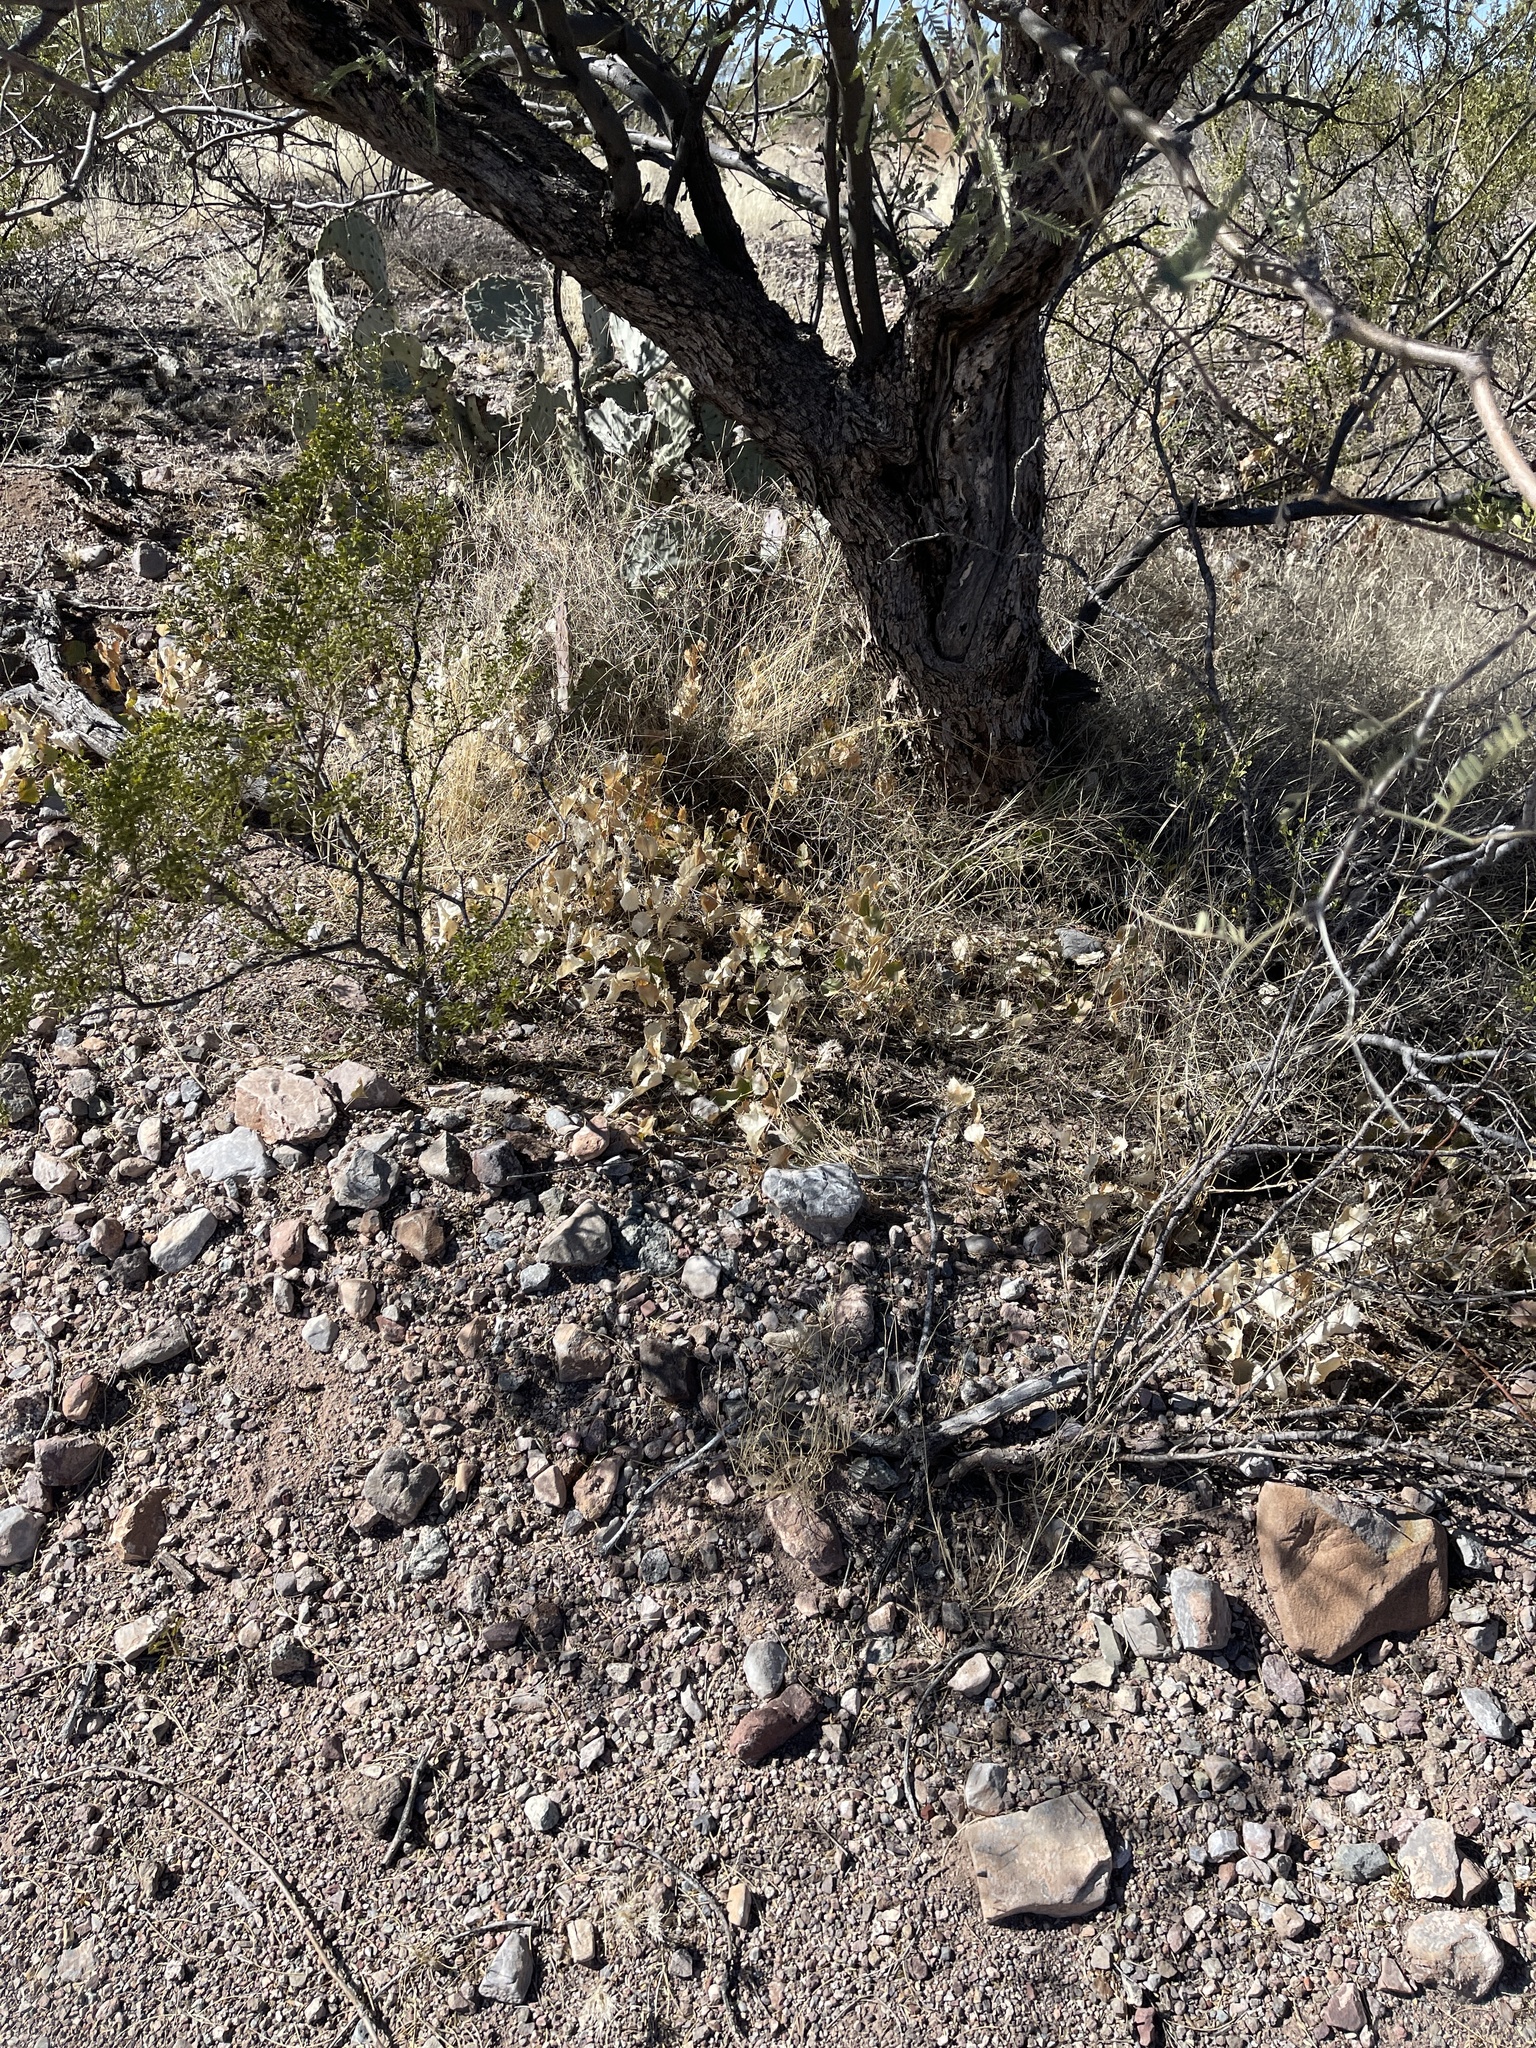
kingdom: Plantae
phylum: Tracheophyta
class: Magnoliopsida
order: Asterales
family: Asteraceae
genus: Acourtia
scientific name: Acourtia nana
